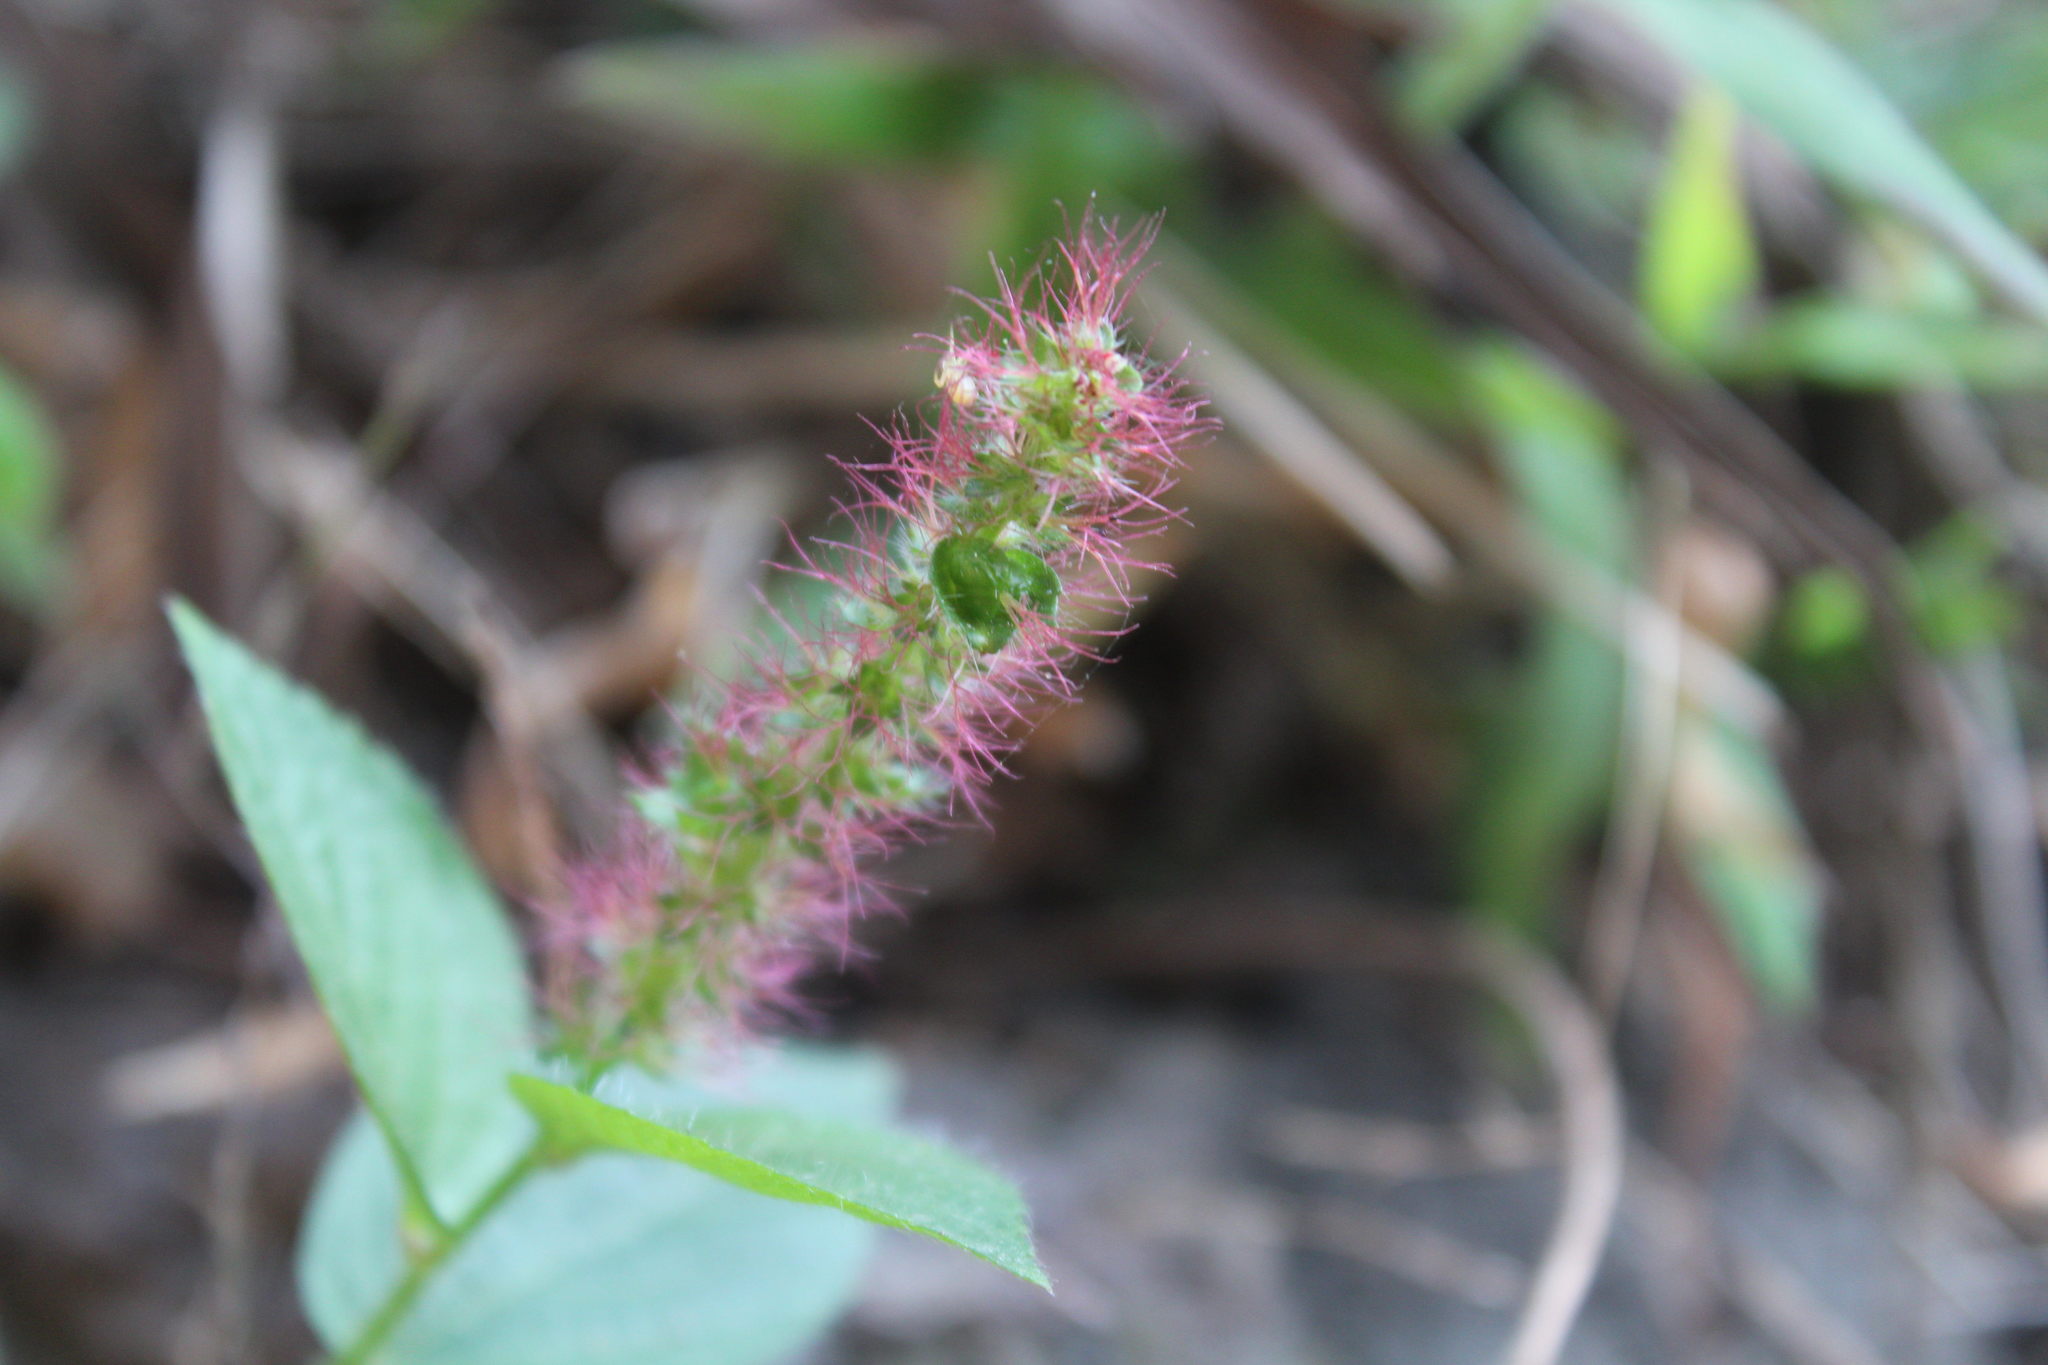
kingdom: Plantae
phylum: Tracheophyta
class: Magnoliopsida
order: Malpighiales
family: Euphorbiaceae
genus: Acalypha
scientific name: Acalypha phleoides
